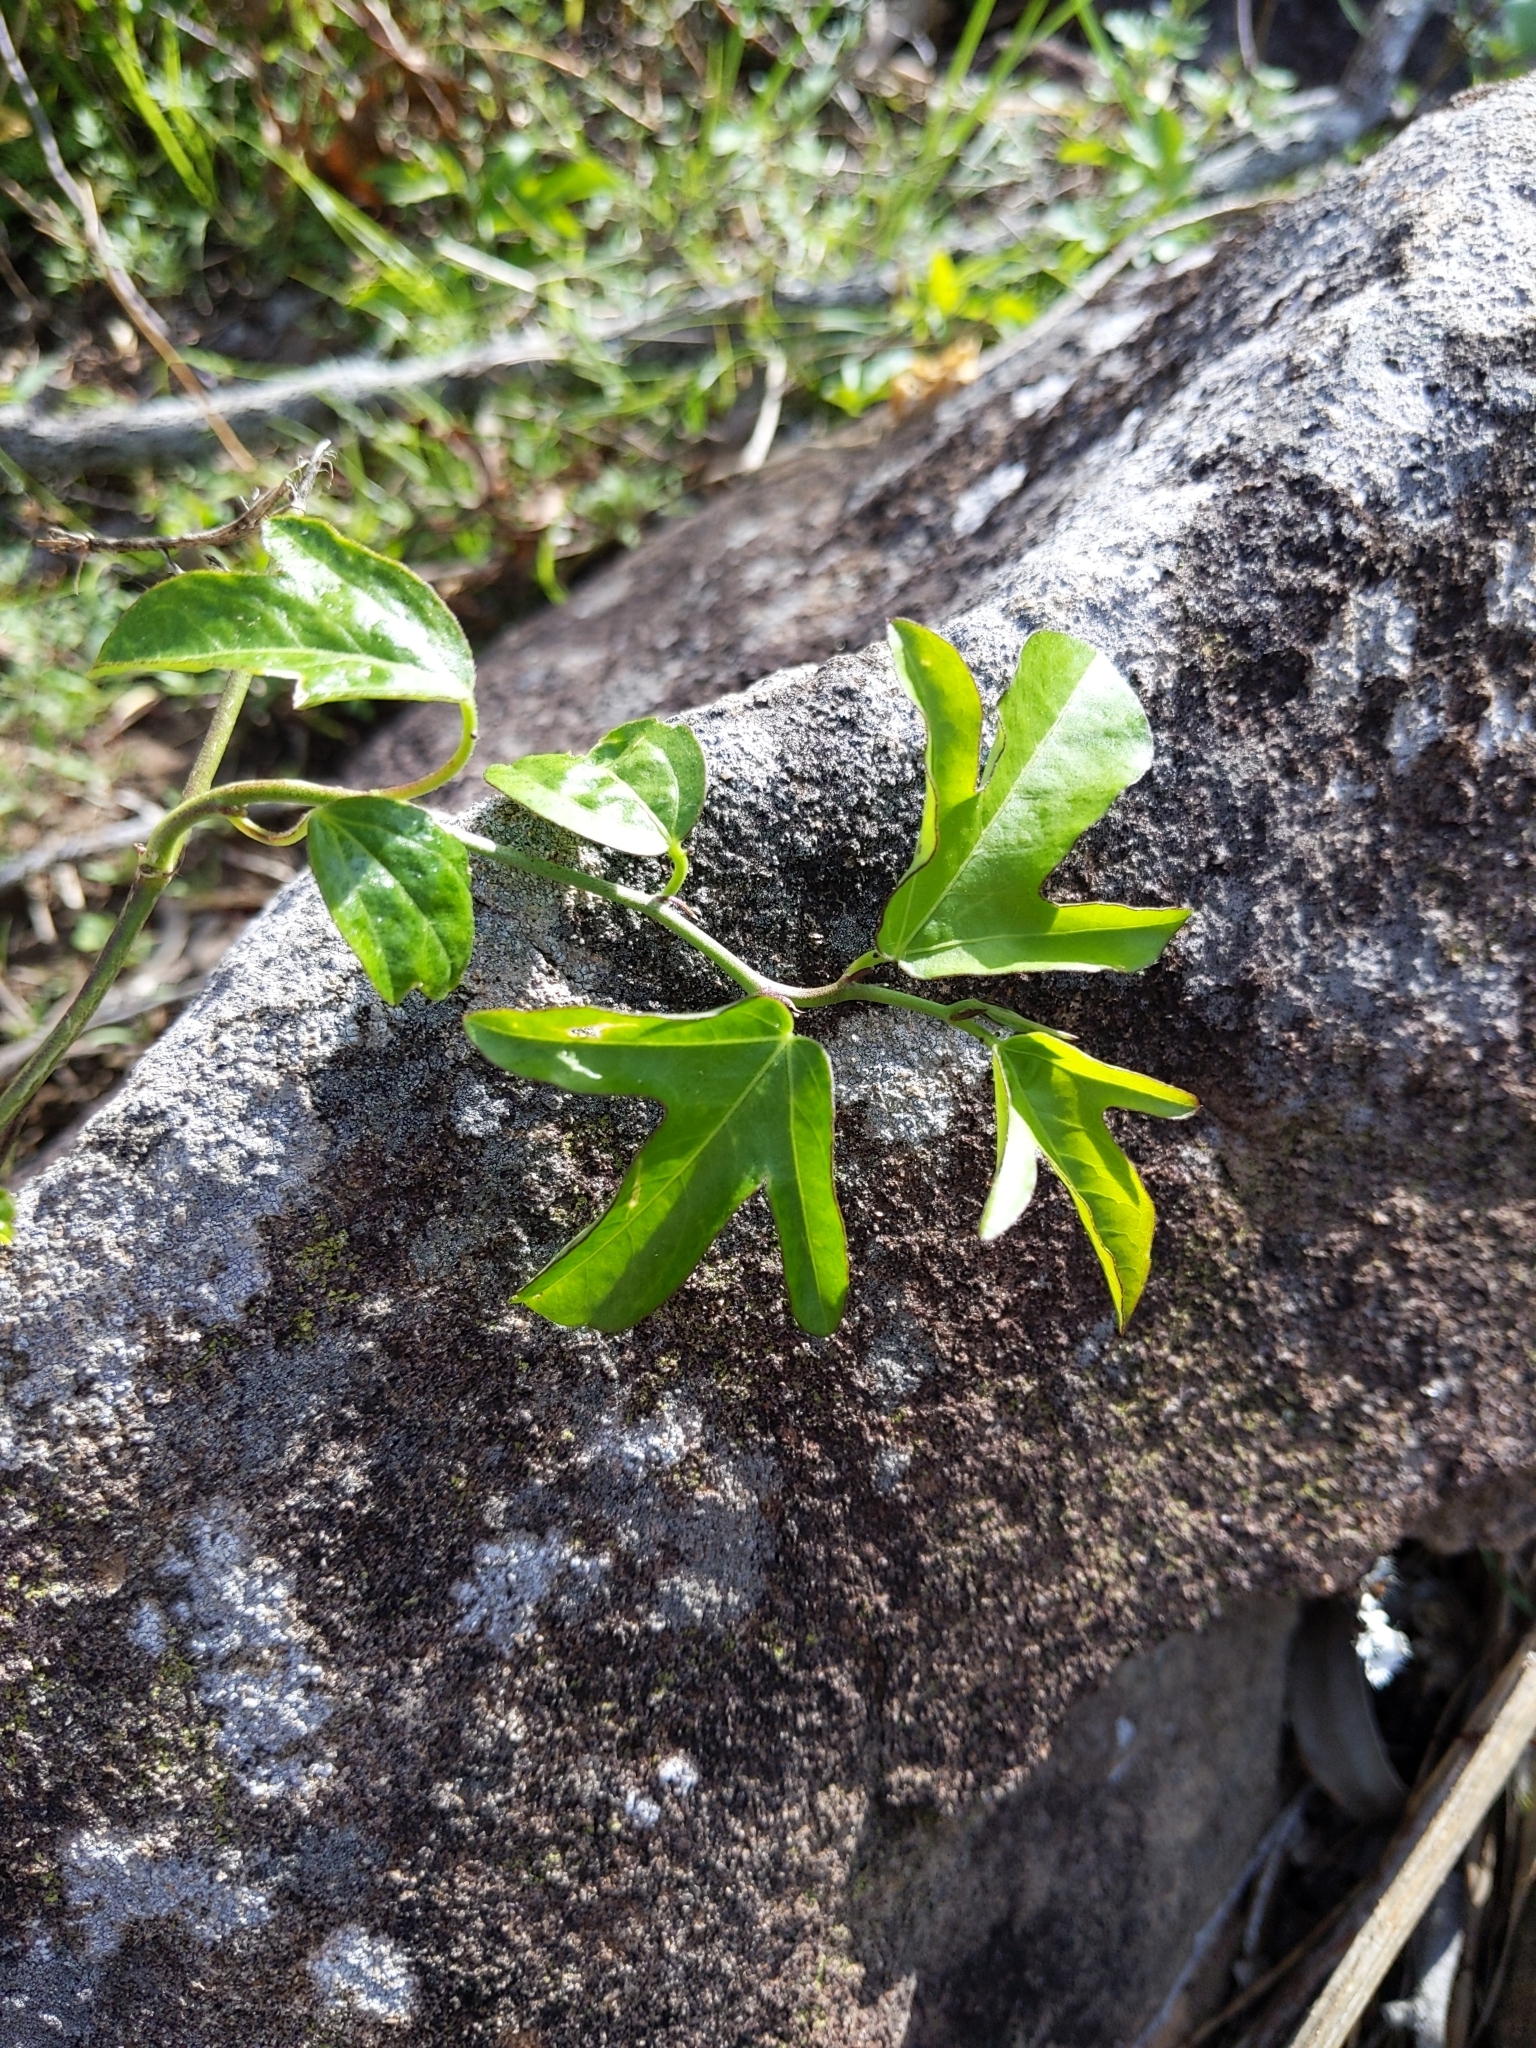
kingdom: Plantae
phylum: Tracheophyta
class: Magnoliopsida
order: Malpighiales
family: Passifloraceae
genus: Passiflora
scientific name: Passiflora pallida
